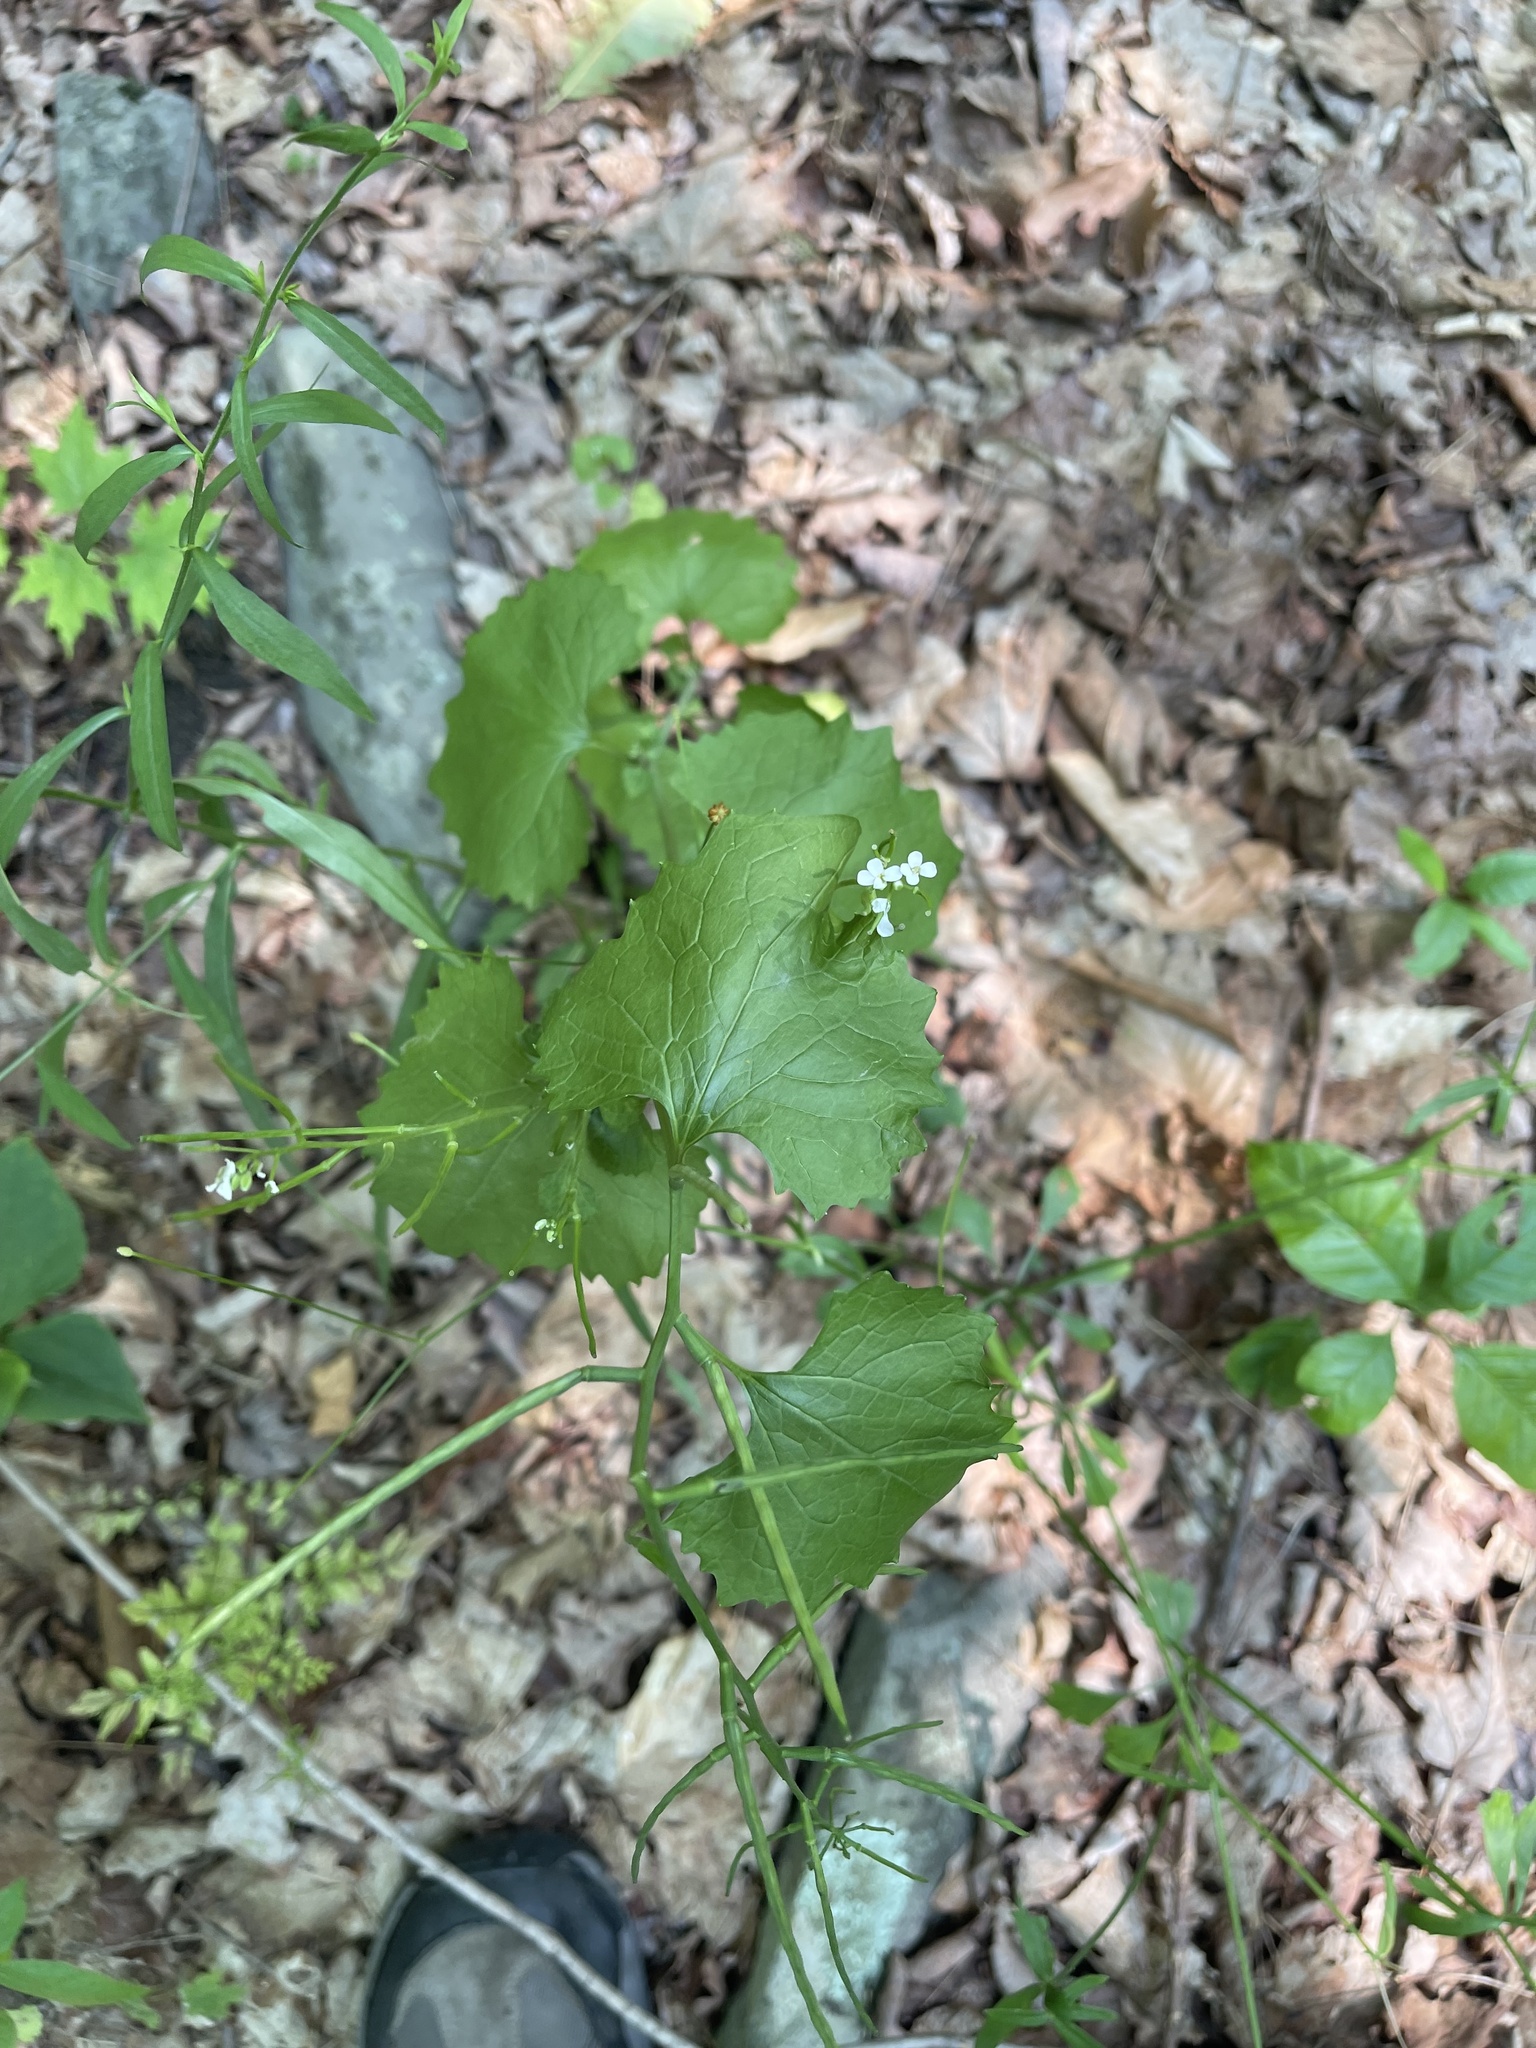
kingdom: Plantae
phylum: Tracheophyta
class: Magnoliopsida
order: Brassicales
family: Brassicaceae
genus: Alliaria
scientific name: Alliaria petiolata
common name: Garlic mustard
